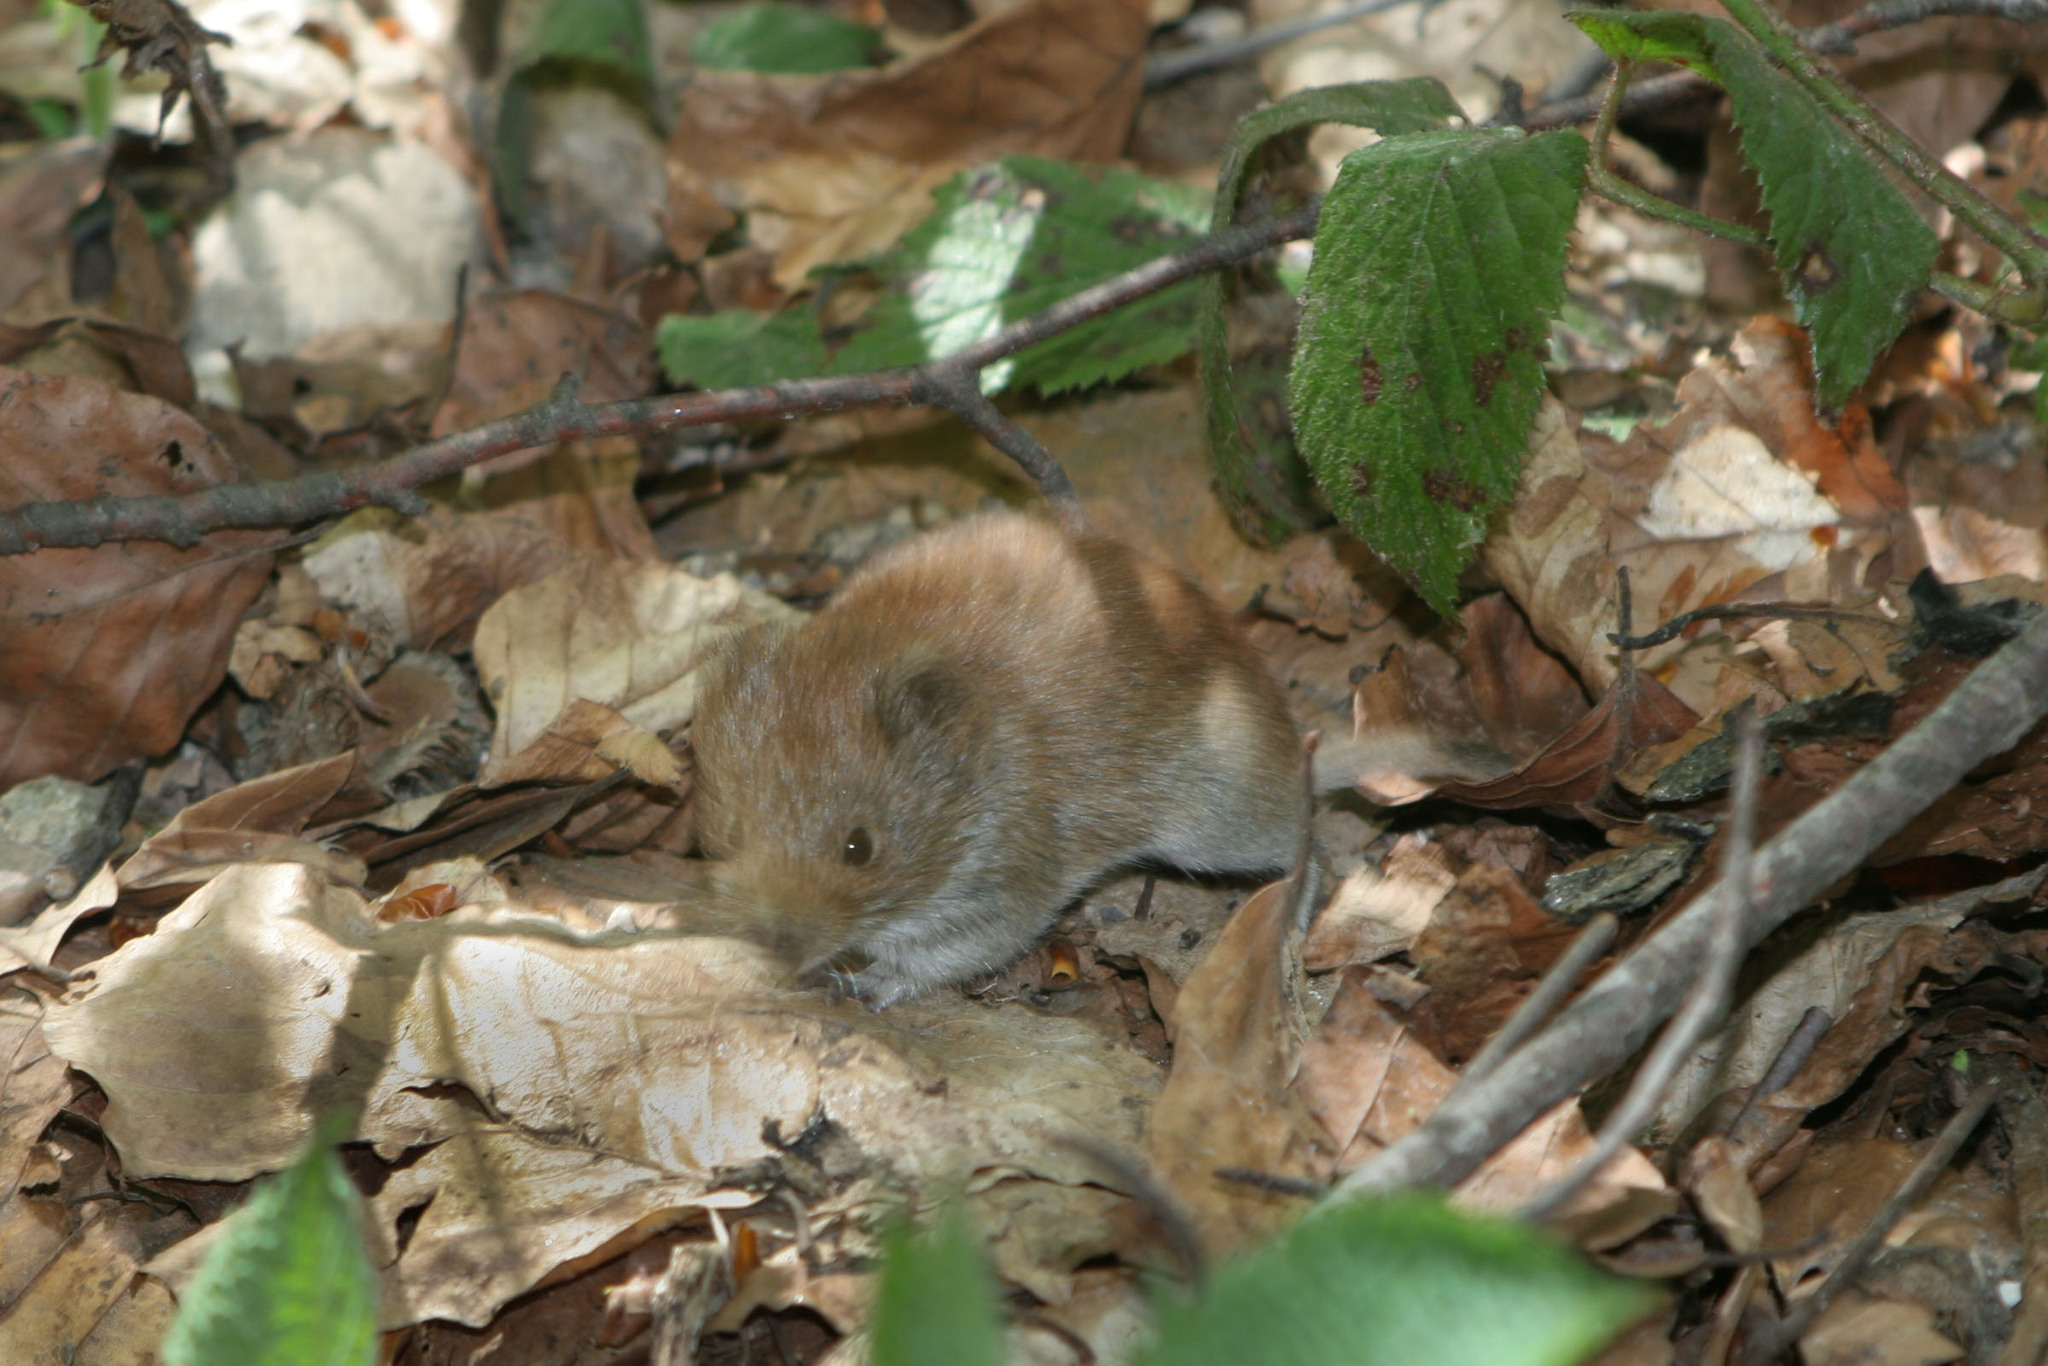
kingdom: Animalia
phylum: Chordata
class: Mammalia
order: Rodentia
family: Cricetidae
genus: Myodes
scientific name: Myodes glareolus
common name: Bank vole
